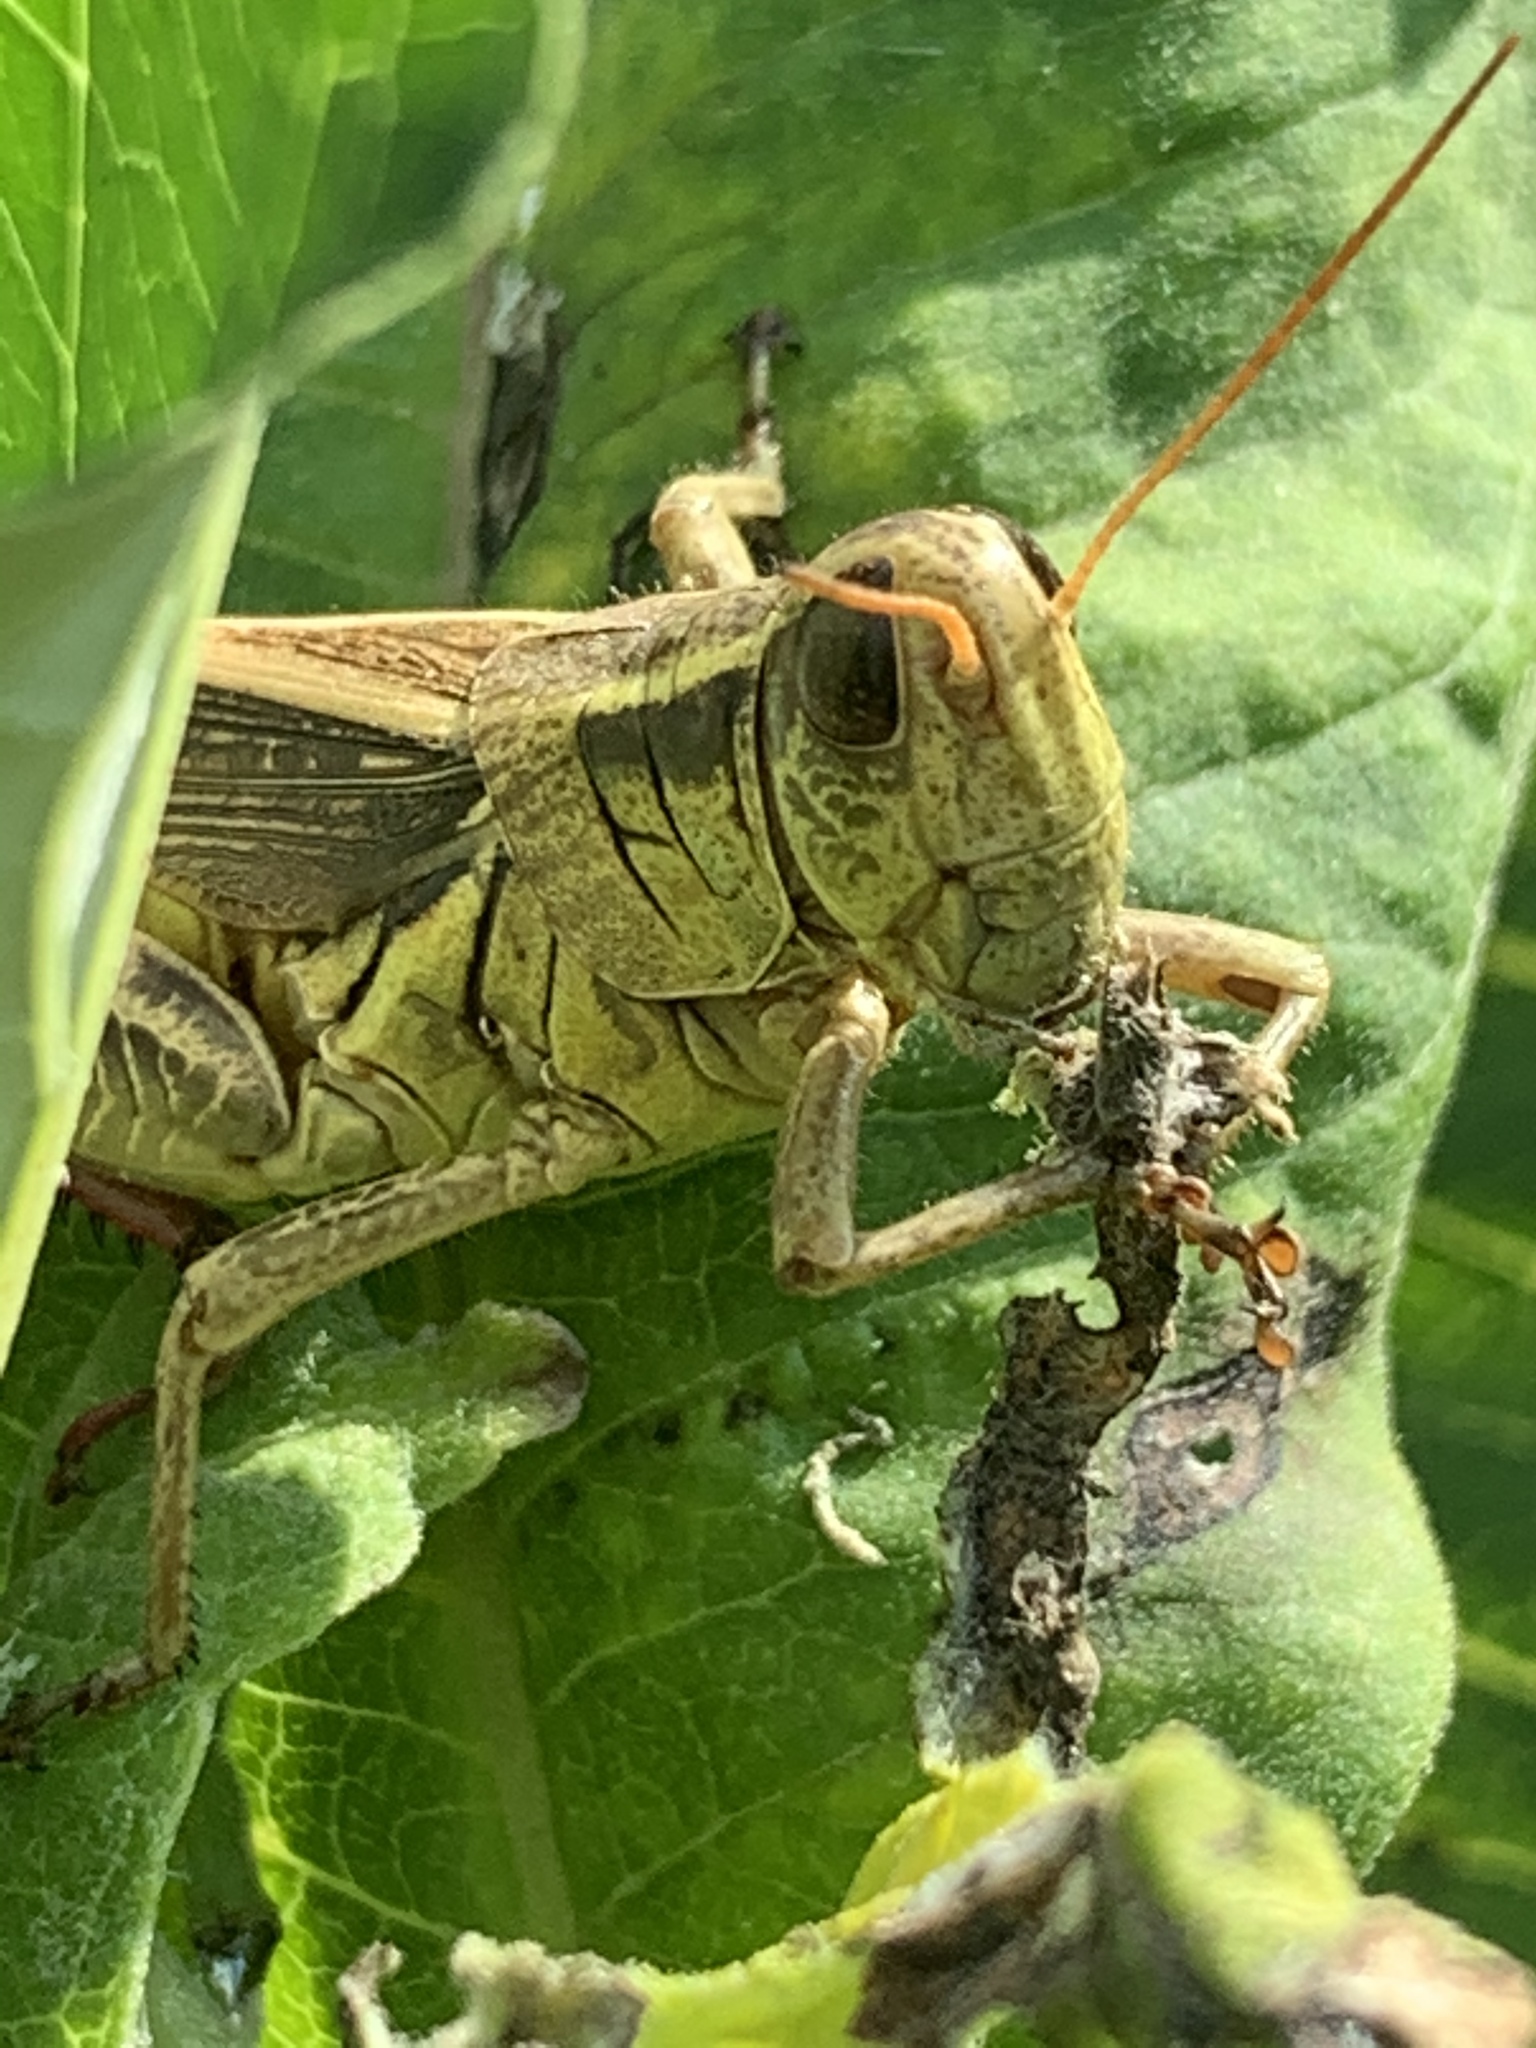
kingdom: Animalia
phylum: Arthropoda
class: Insecta
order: Orthoptera
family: Acrididae
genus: Melanoplus
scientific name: Melanoplus bivittatus
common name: Two-striped grasshopper
